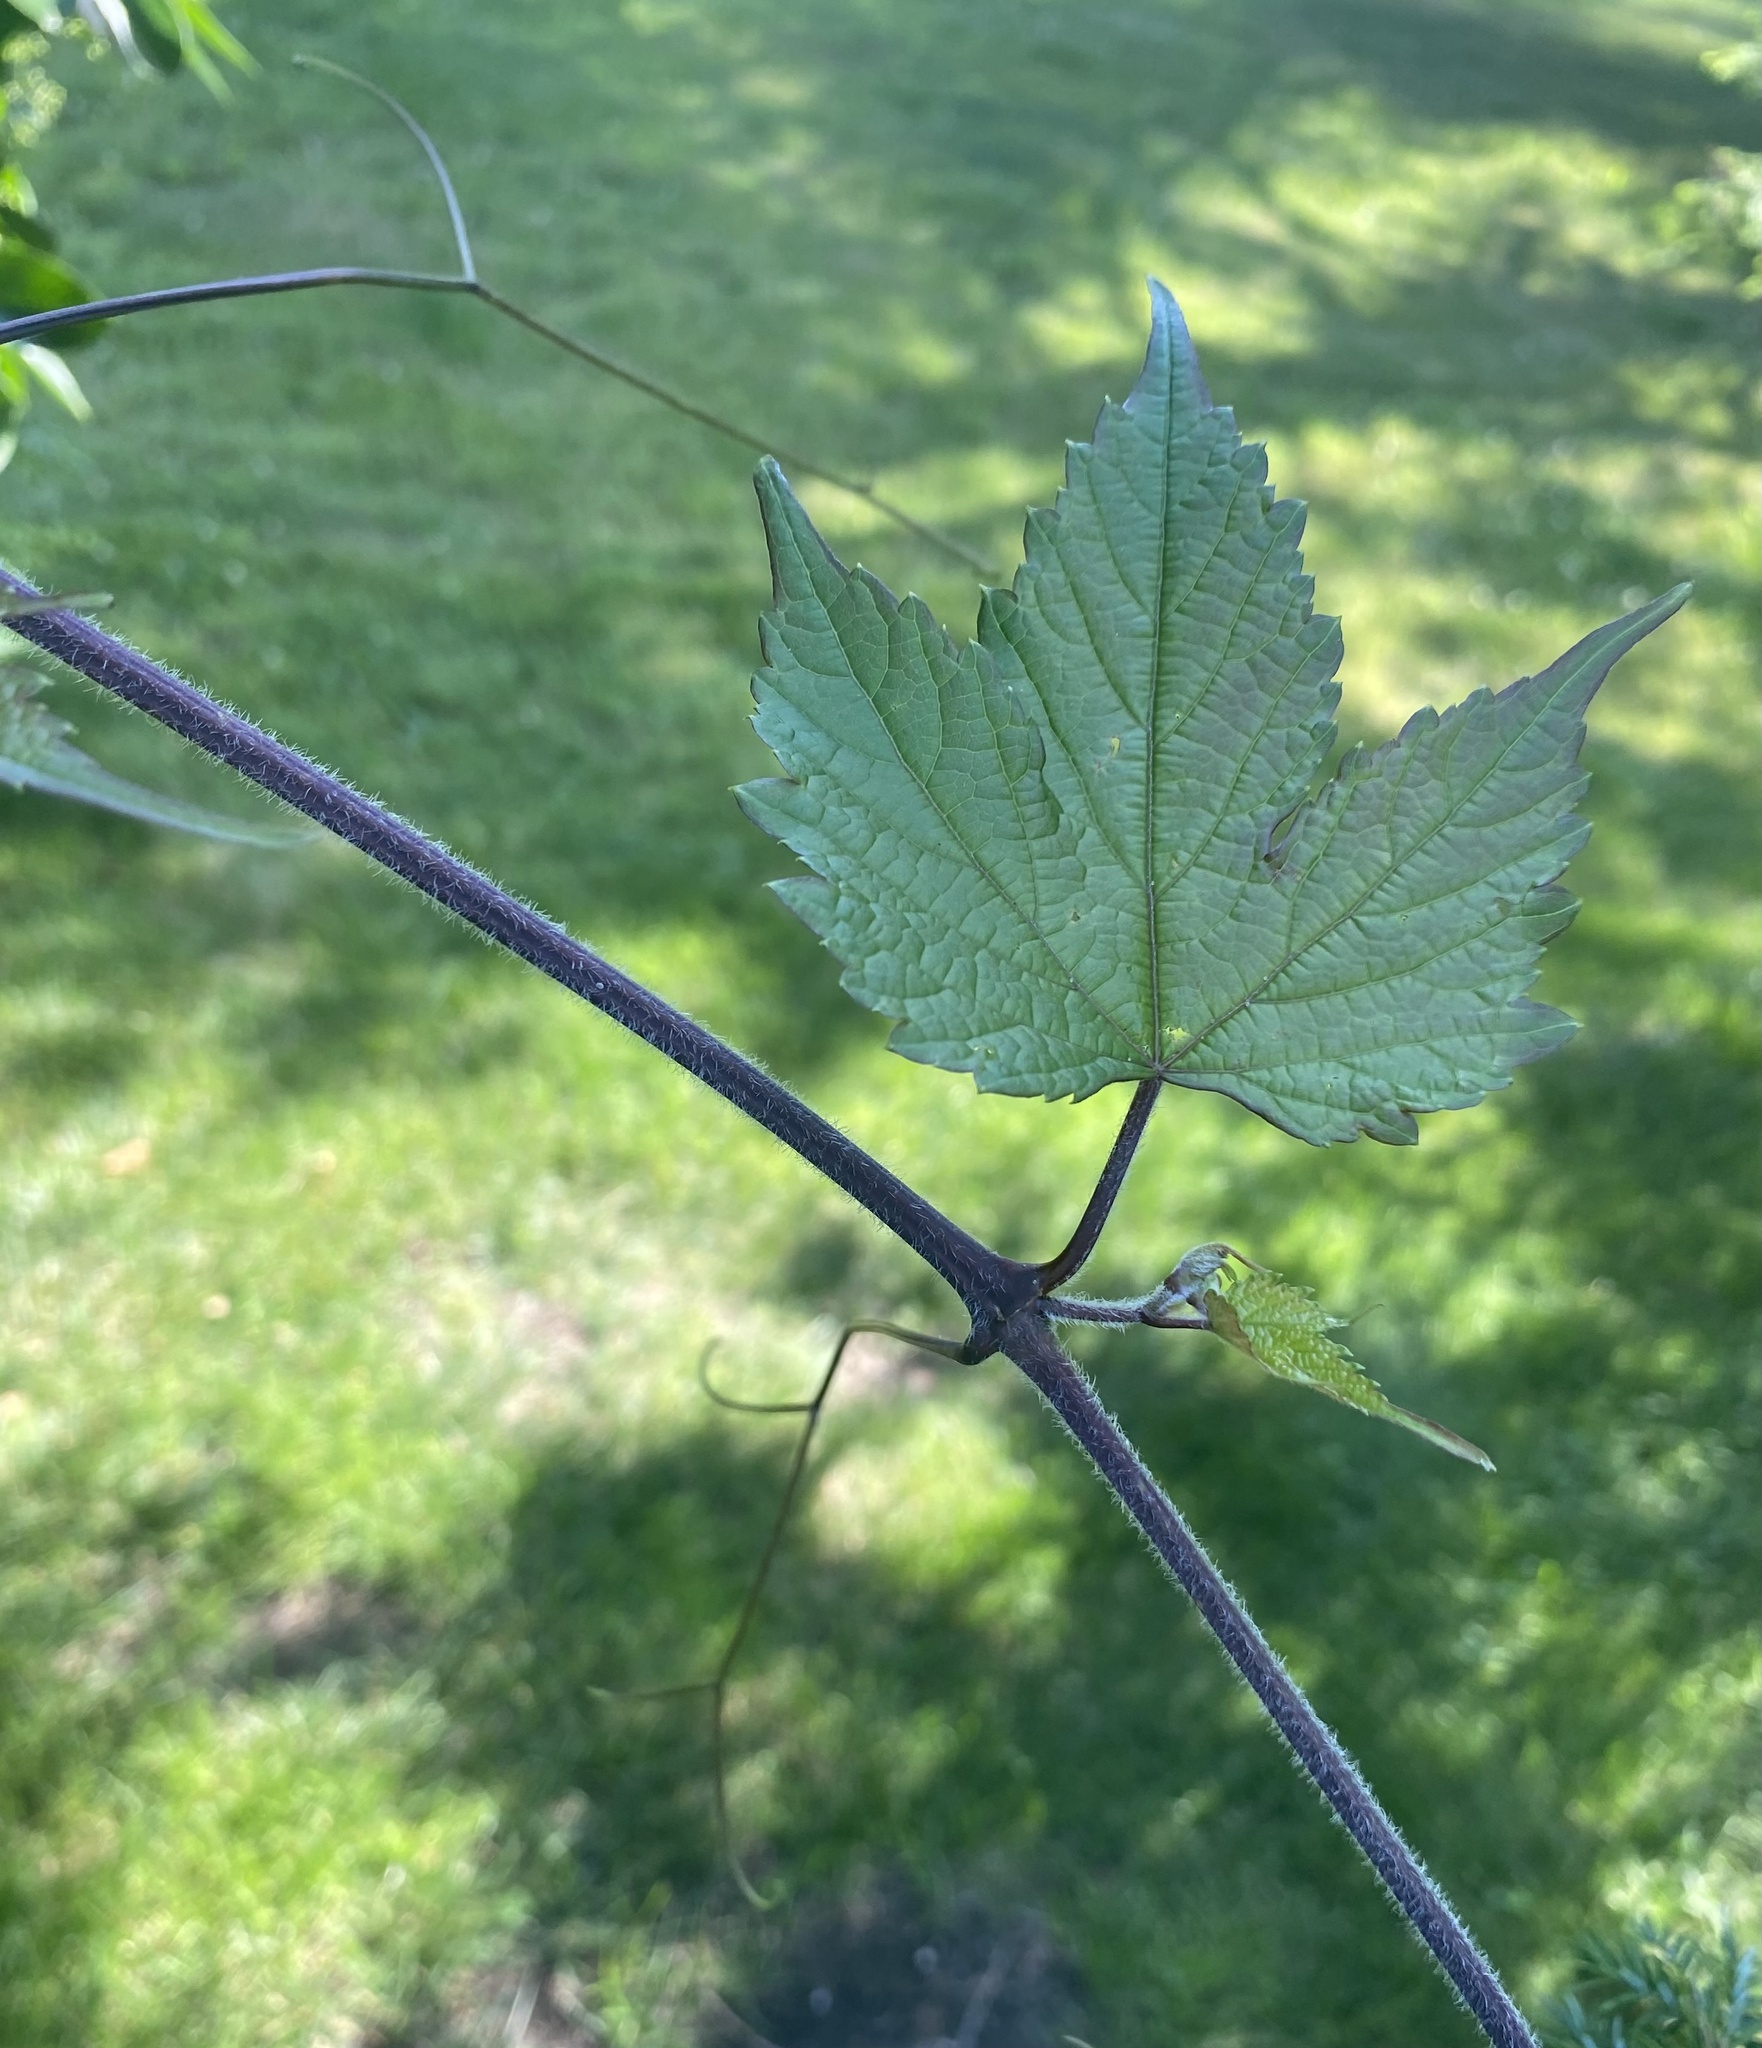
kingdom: Plantae
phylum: Tracheophyta
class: Magnoliopsida
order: Vitales
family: Vitaceae
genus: Ampelopsis
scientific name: Ampelopsis glandulosa
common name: Amur peppervine
